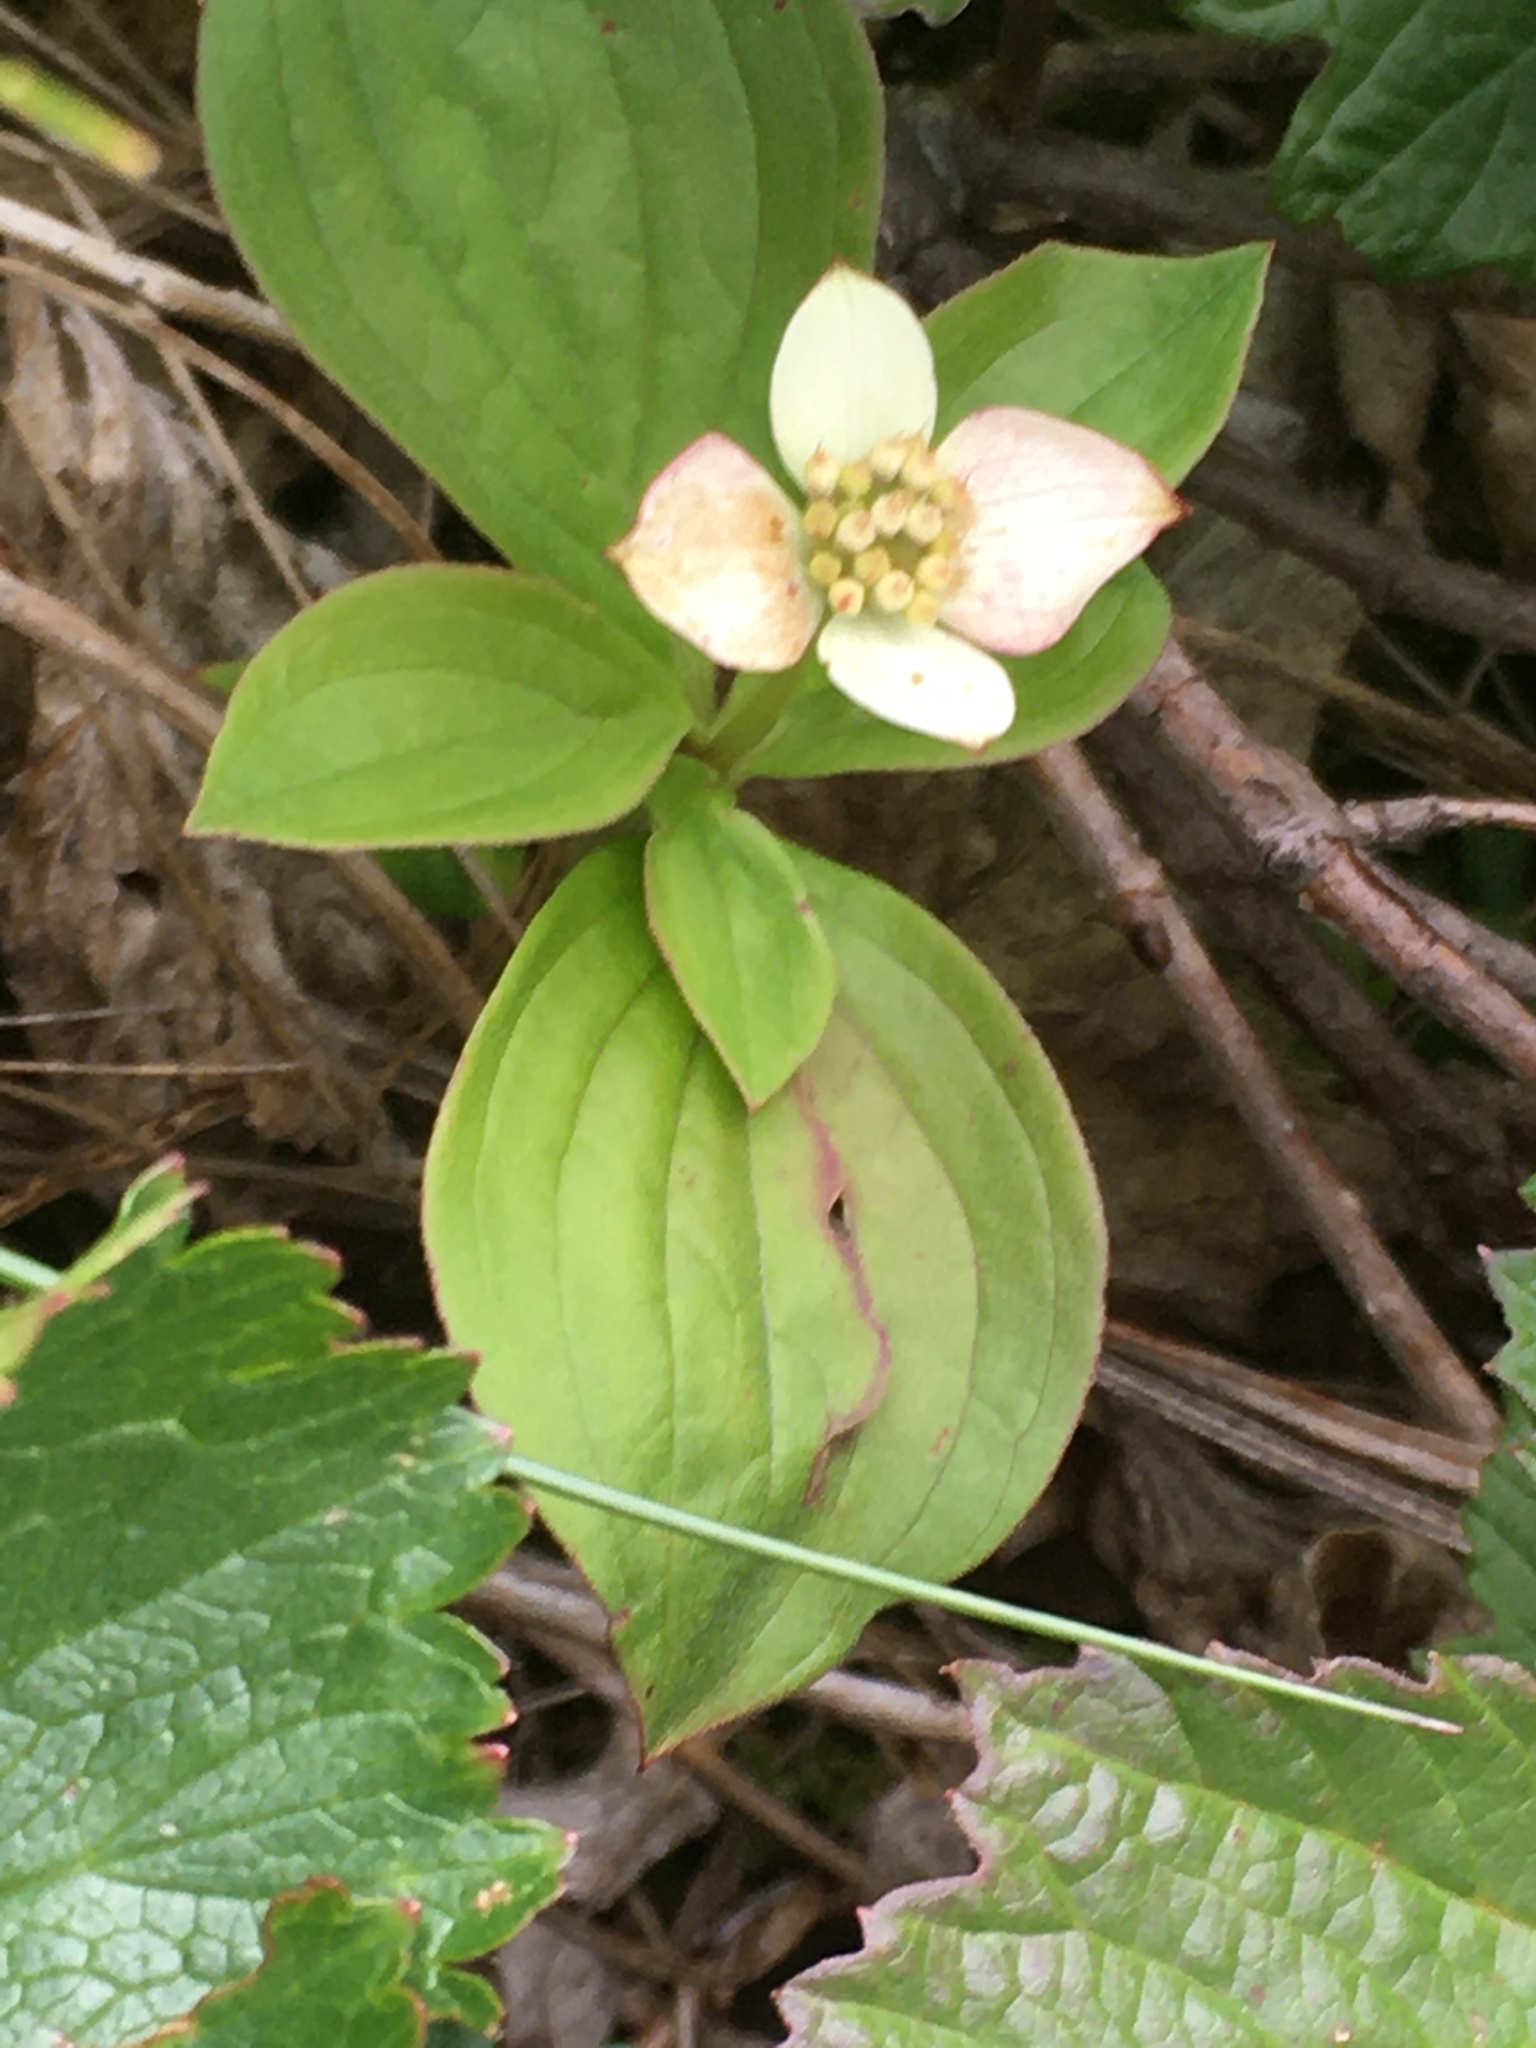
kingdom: Plantae
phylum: Tracheophyta
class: Magnoliopsida
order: Cornales
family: Cornaceae
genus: Cornus
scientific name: Cornus canadensis
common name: Creeping dogwood
